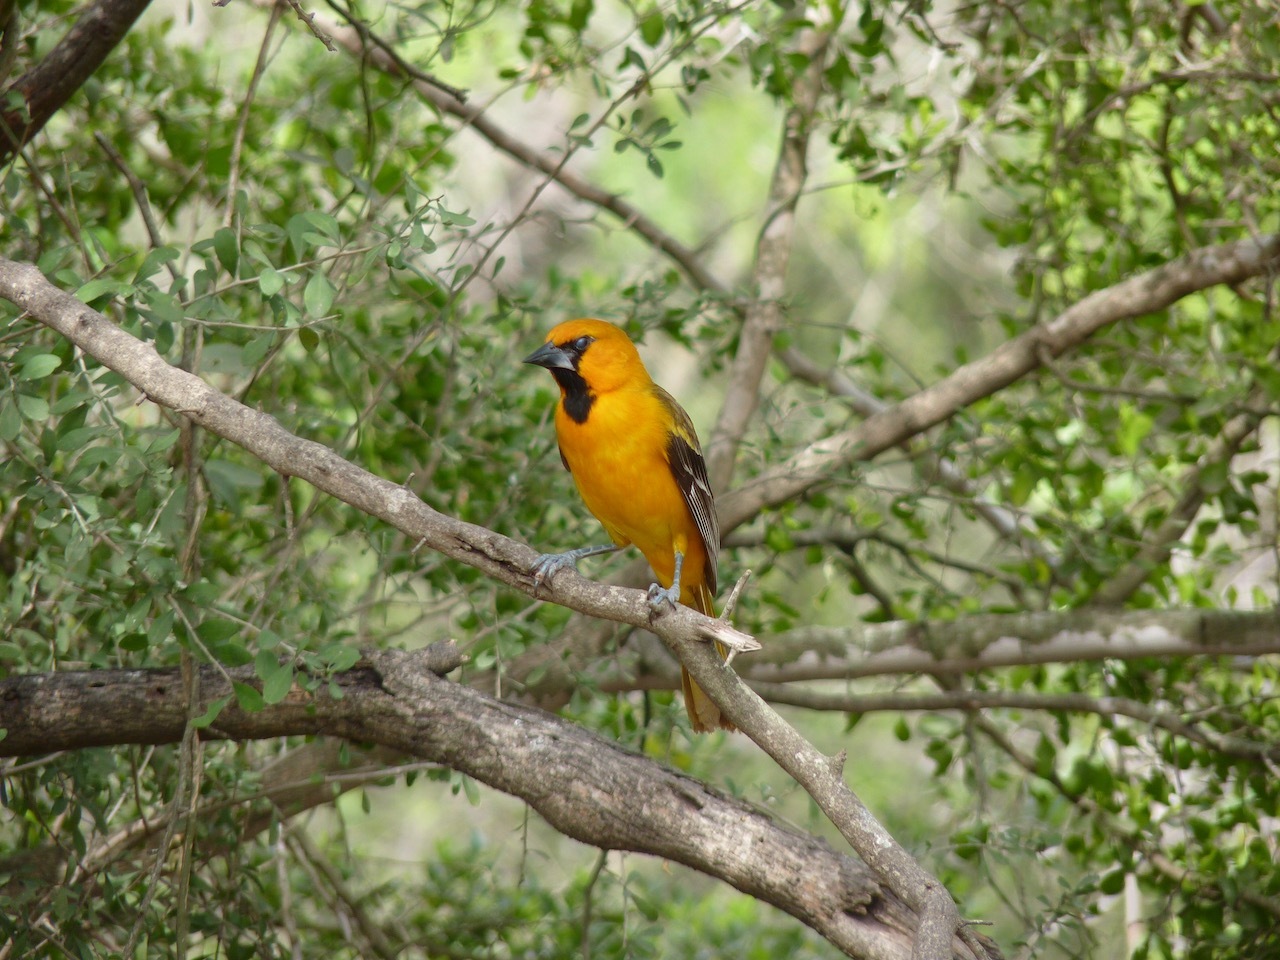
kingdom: Animalia
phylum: Chordata
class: Aves
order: Passeriformes
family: Icteridae
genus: Icterus
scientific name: Icterus gularis
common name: Altamira oriole
